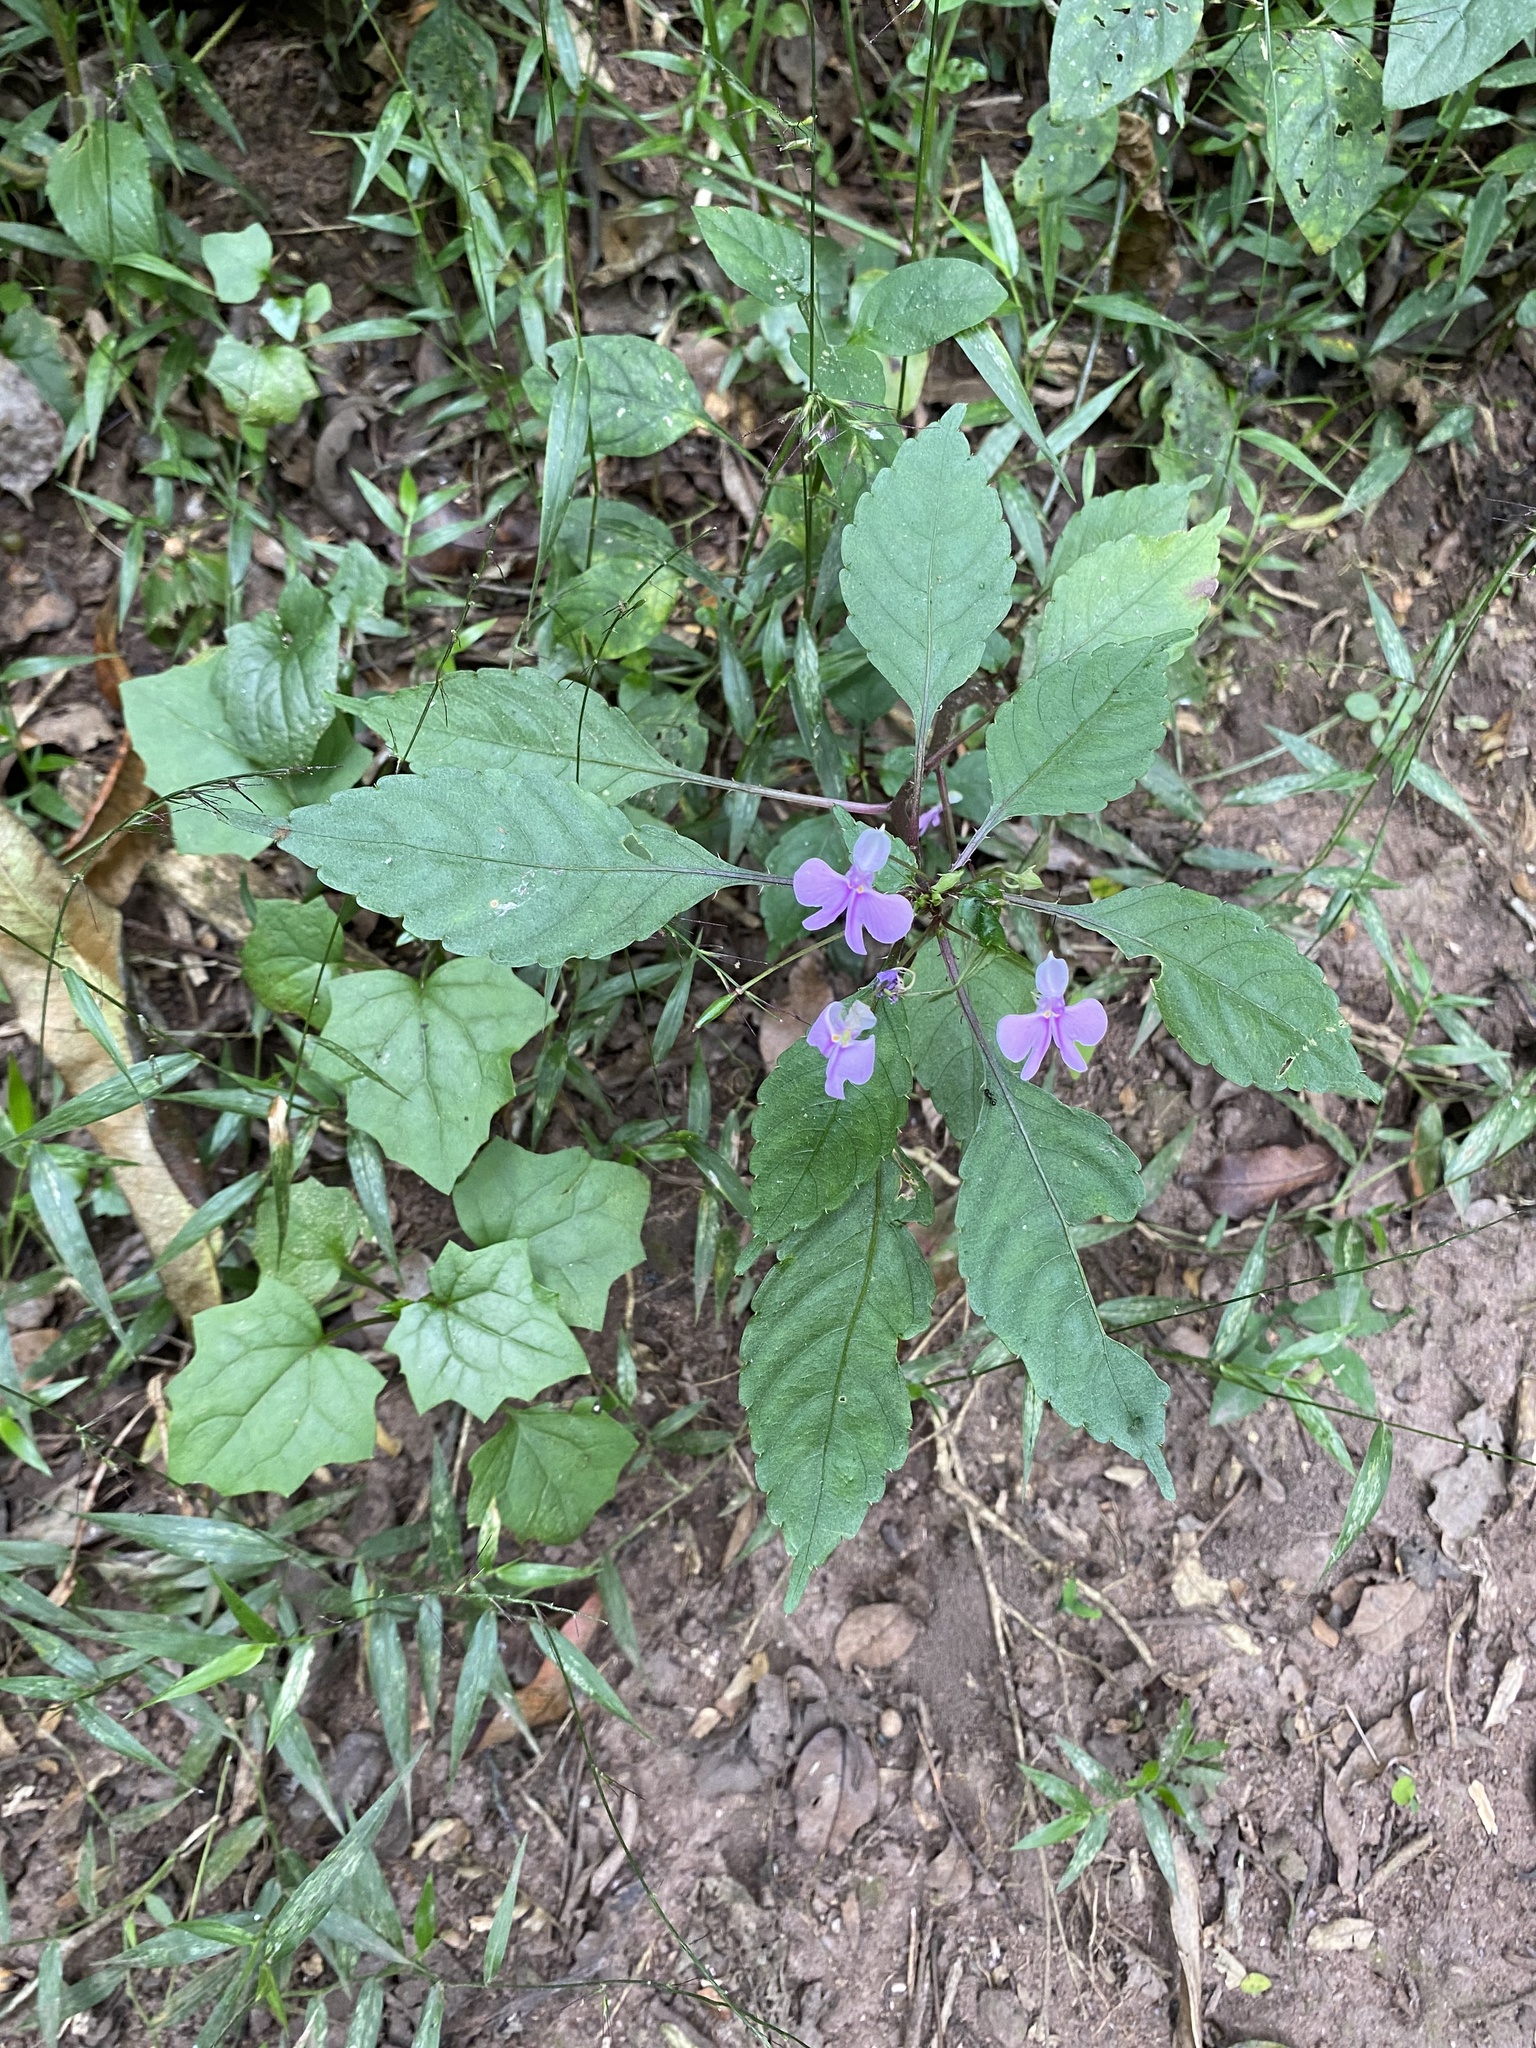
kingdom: Plantae
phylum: Tracheophyta
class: Magnoliopsida
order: Ericales
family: Balsaminaceae
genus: Impatiens
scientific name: Impatiens hochstetteri
